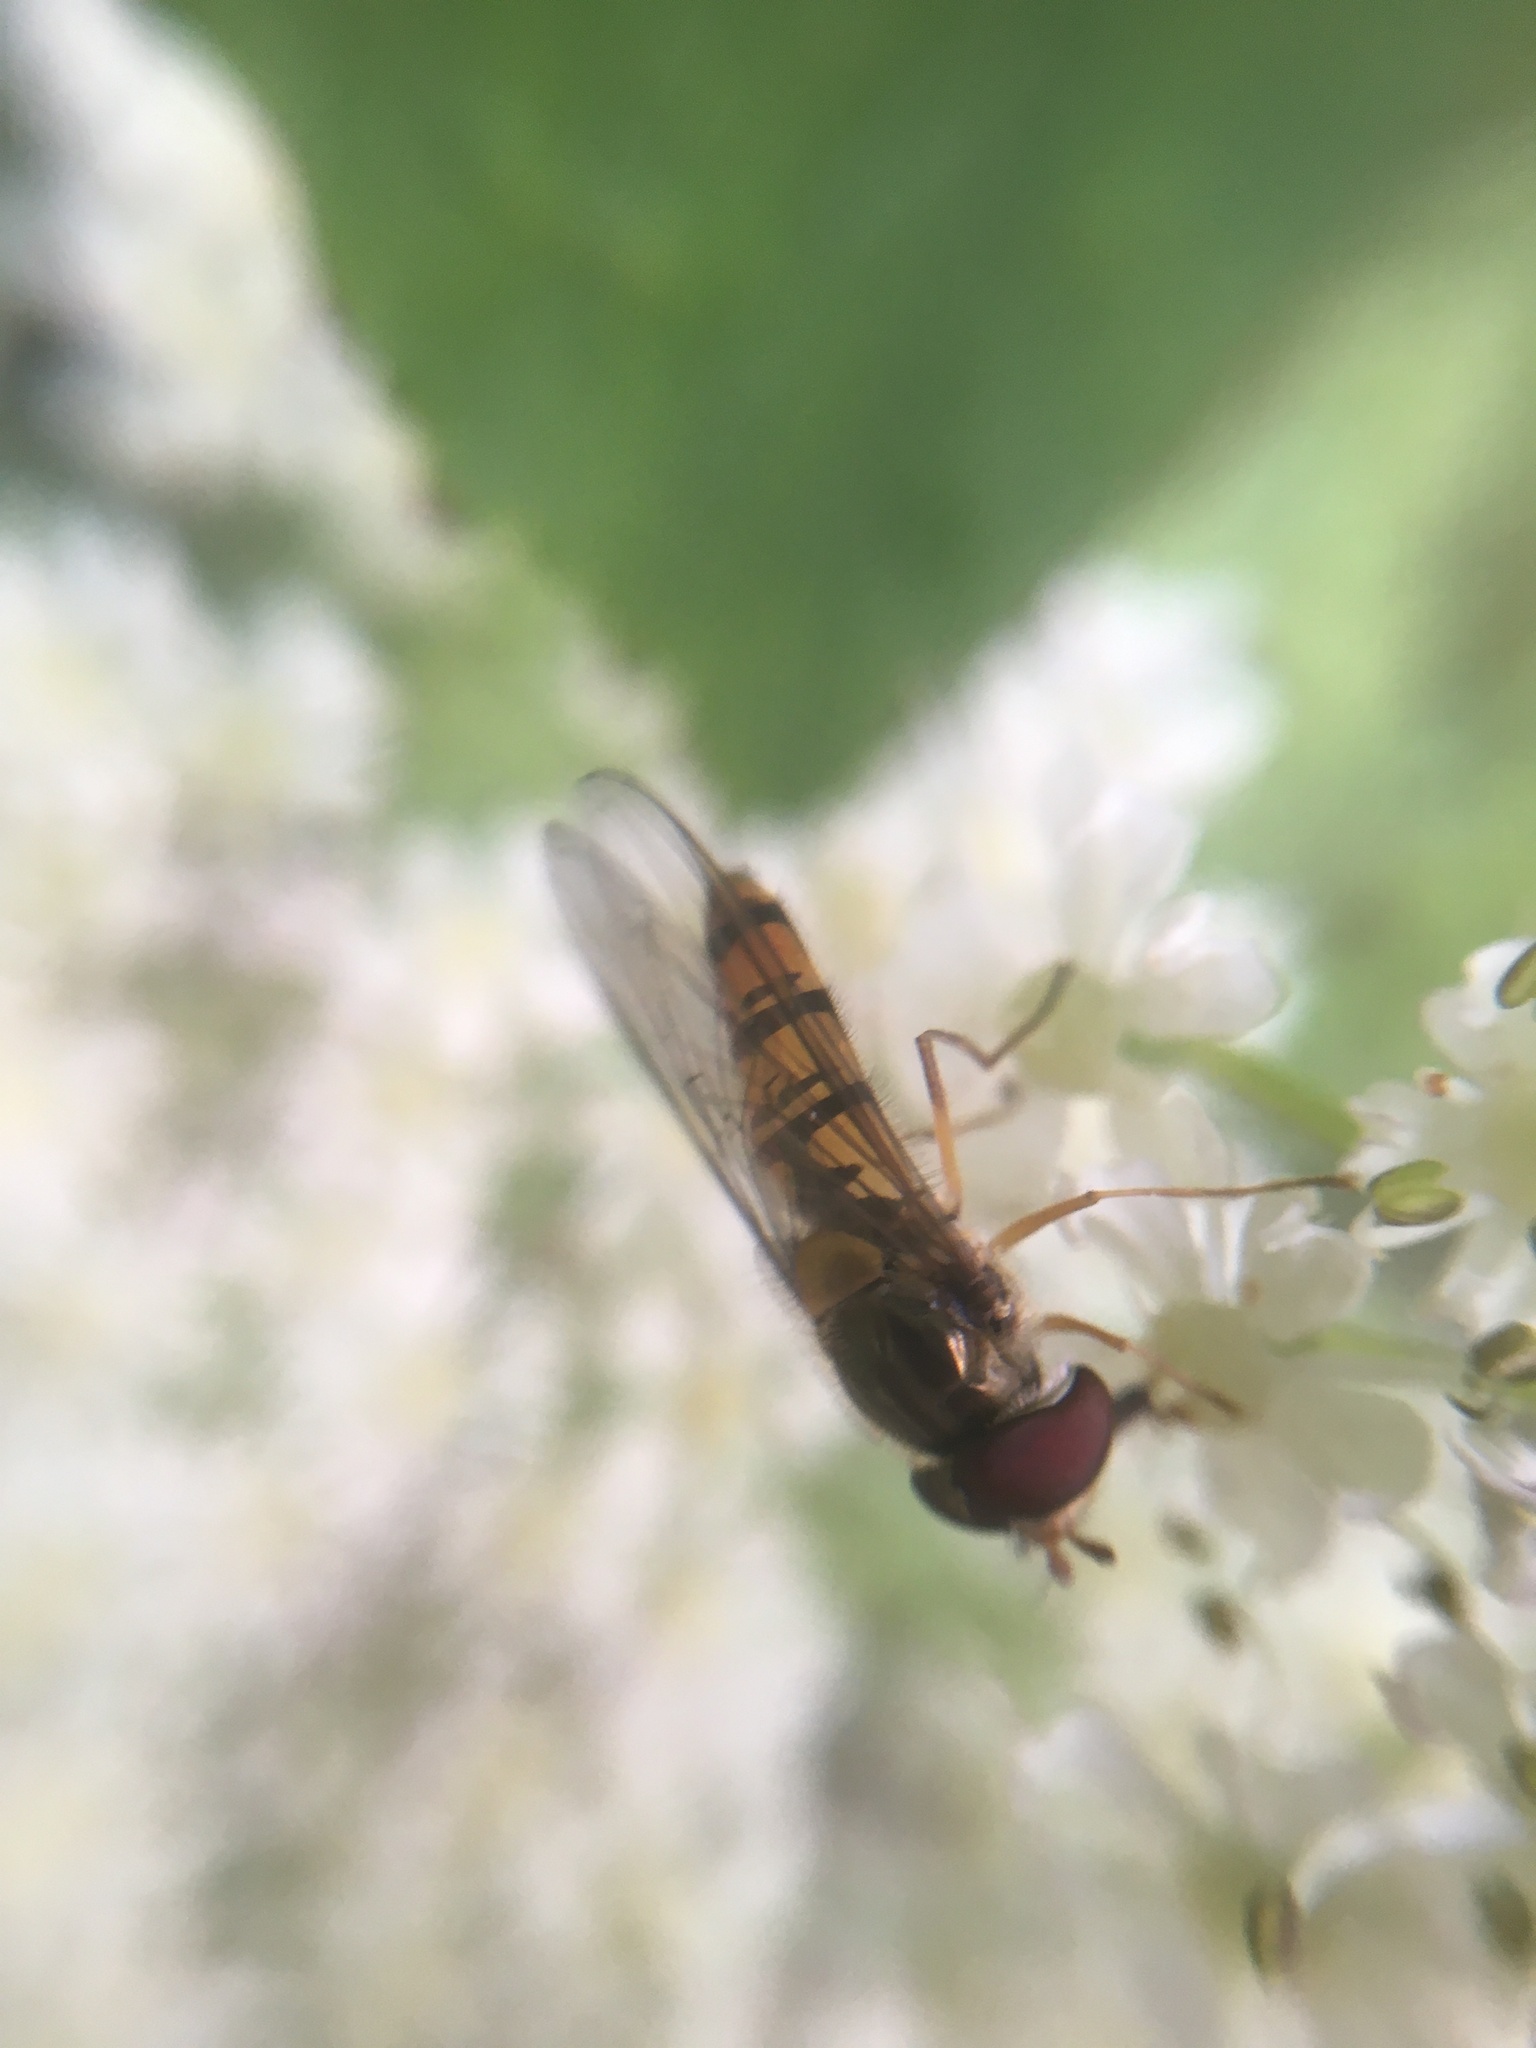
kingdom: Animalia
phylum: Arthropoda
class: Insecta
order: Diptera
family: Syrphidae
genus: Episyrphus
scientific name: Episyrphus balteatus
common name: Marmalade hoverfly
